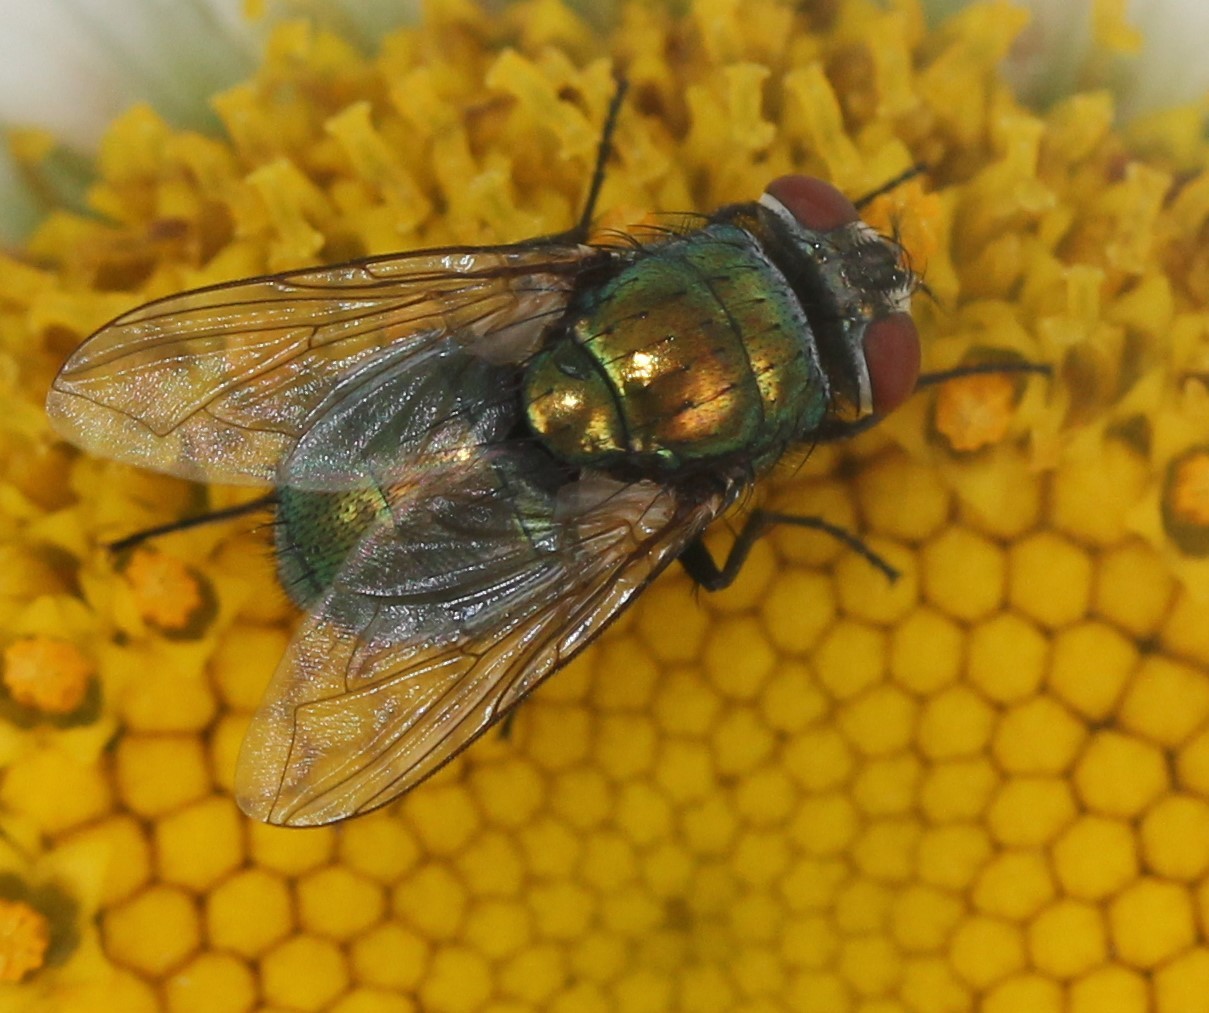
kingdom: Animalia
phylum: Arthropoda
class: Insecta
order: Diptera
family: Calliphoridae
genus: Lucilia
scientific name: Lucilia sericata
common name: Blow fly
